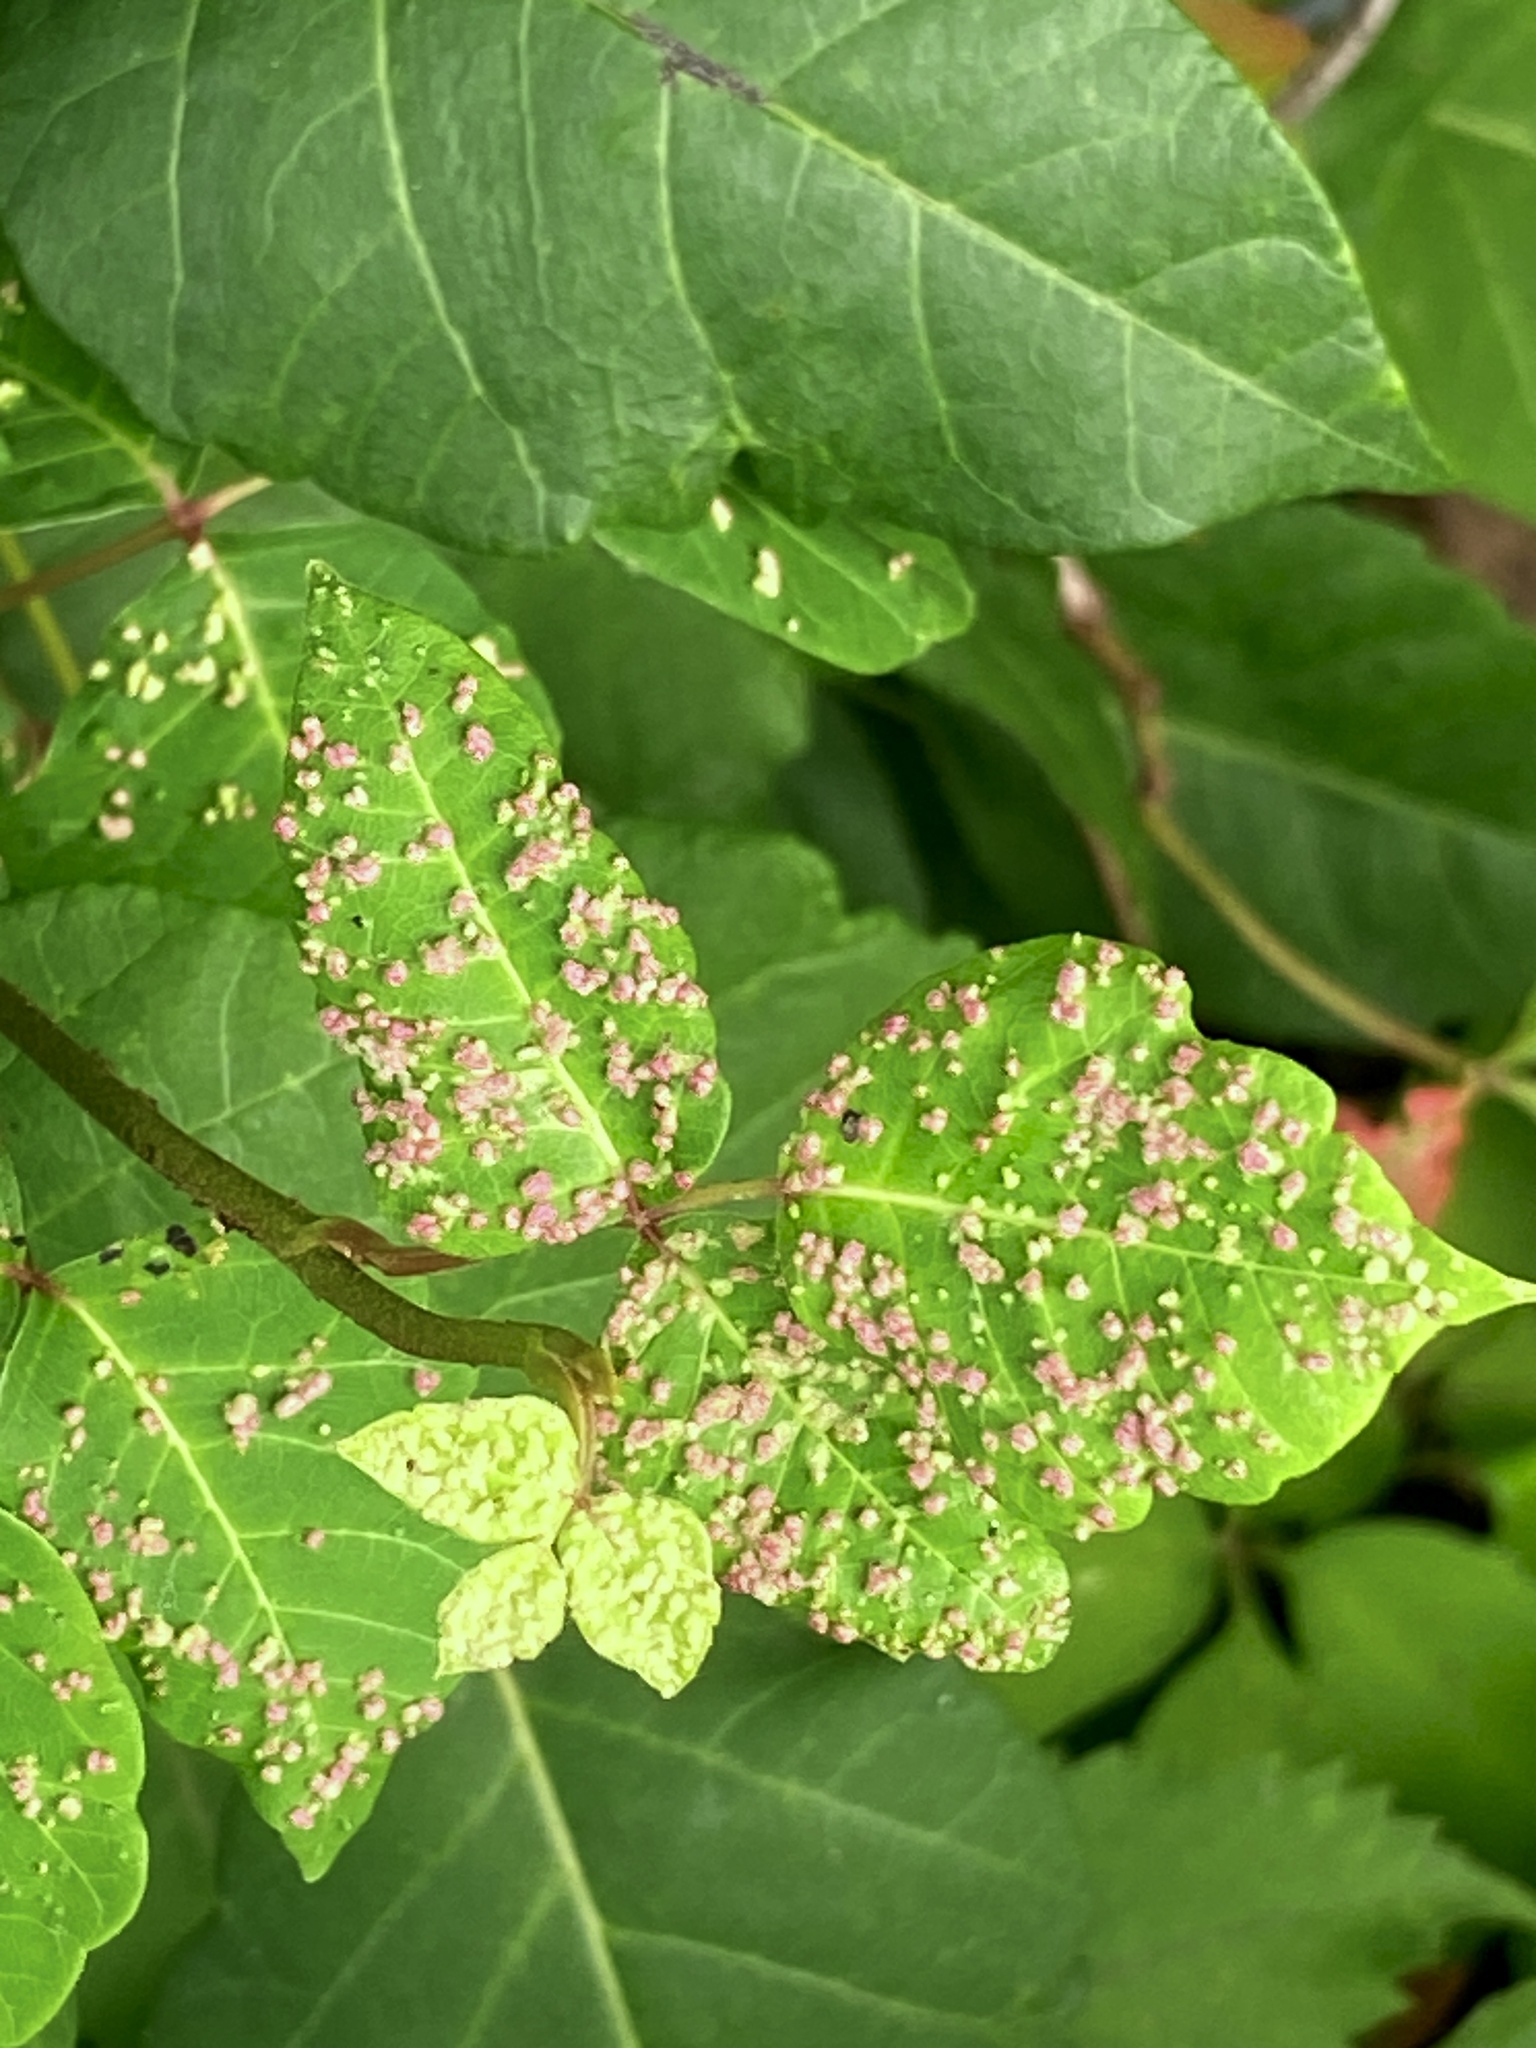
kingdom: Animalia
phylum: Arthropoda
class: Arachnida
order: Trombidiformes
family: Eriophyidae
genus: Aculops
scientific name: Aculops
